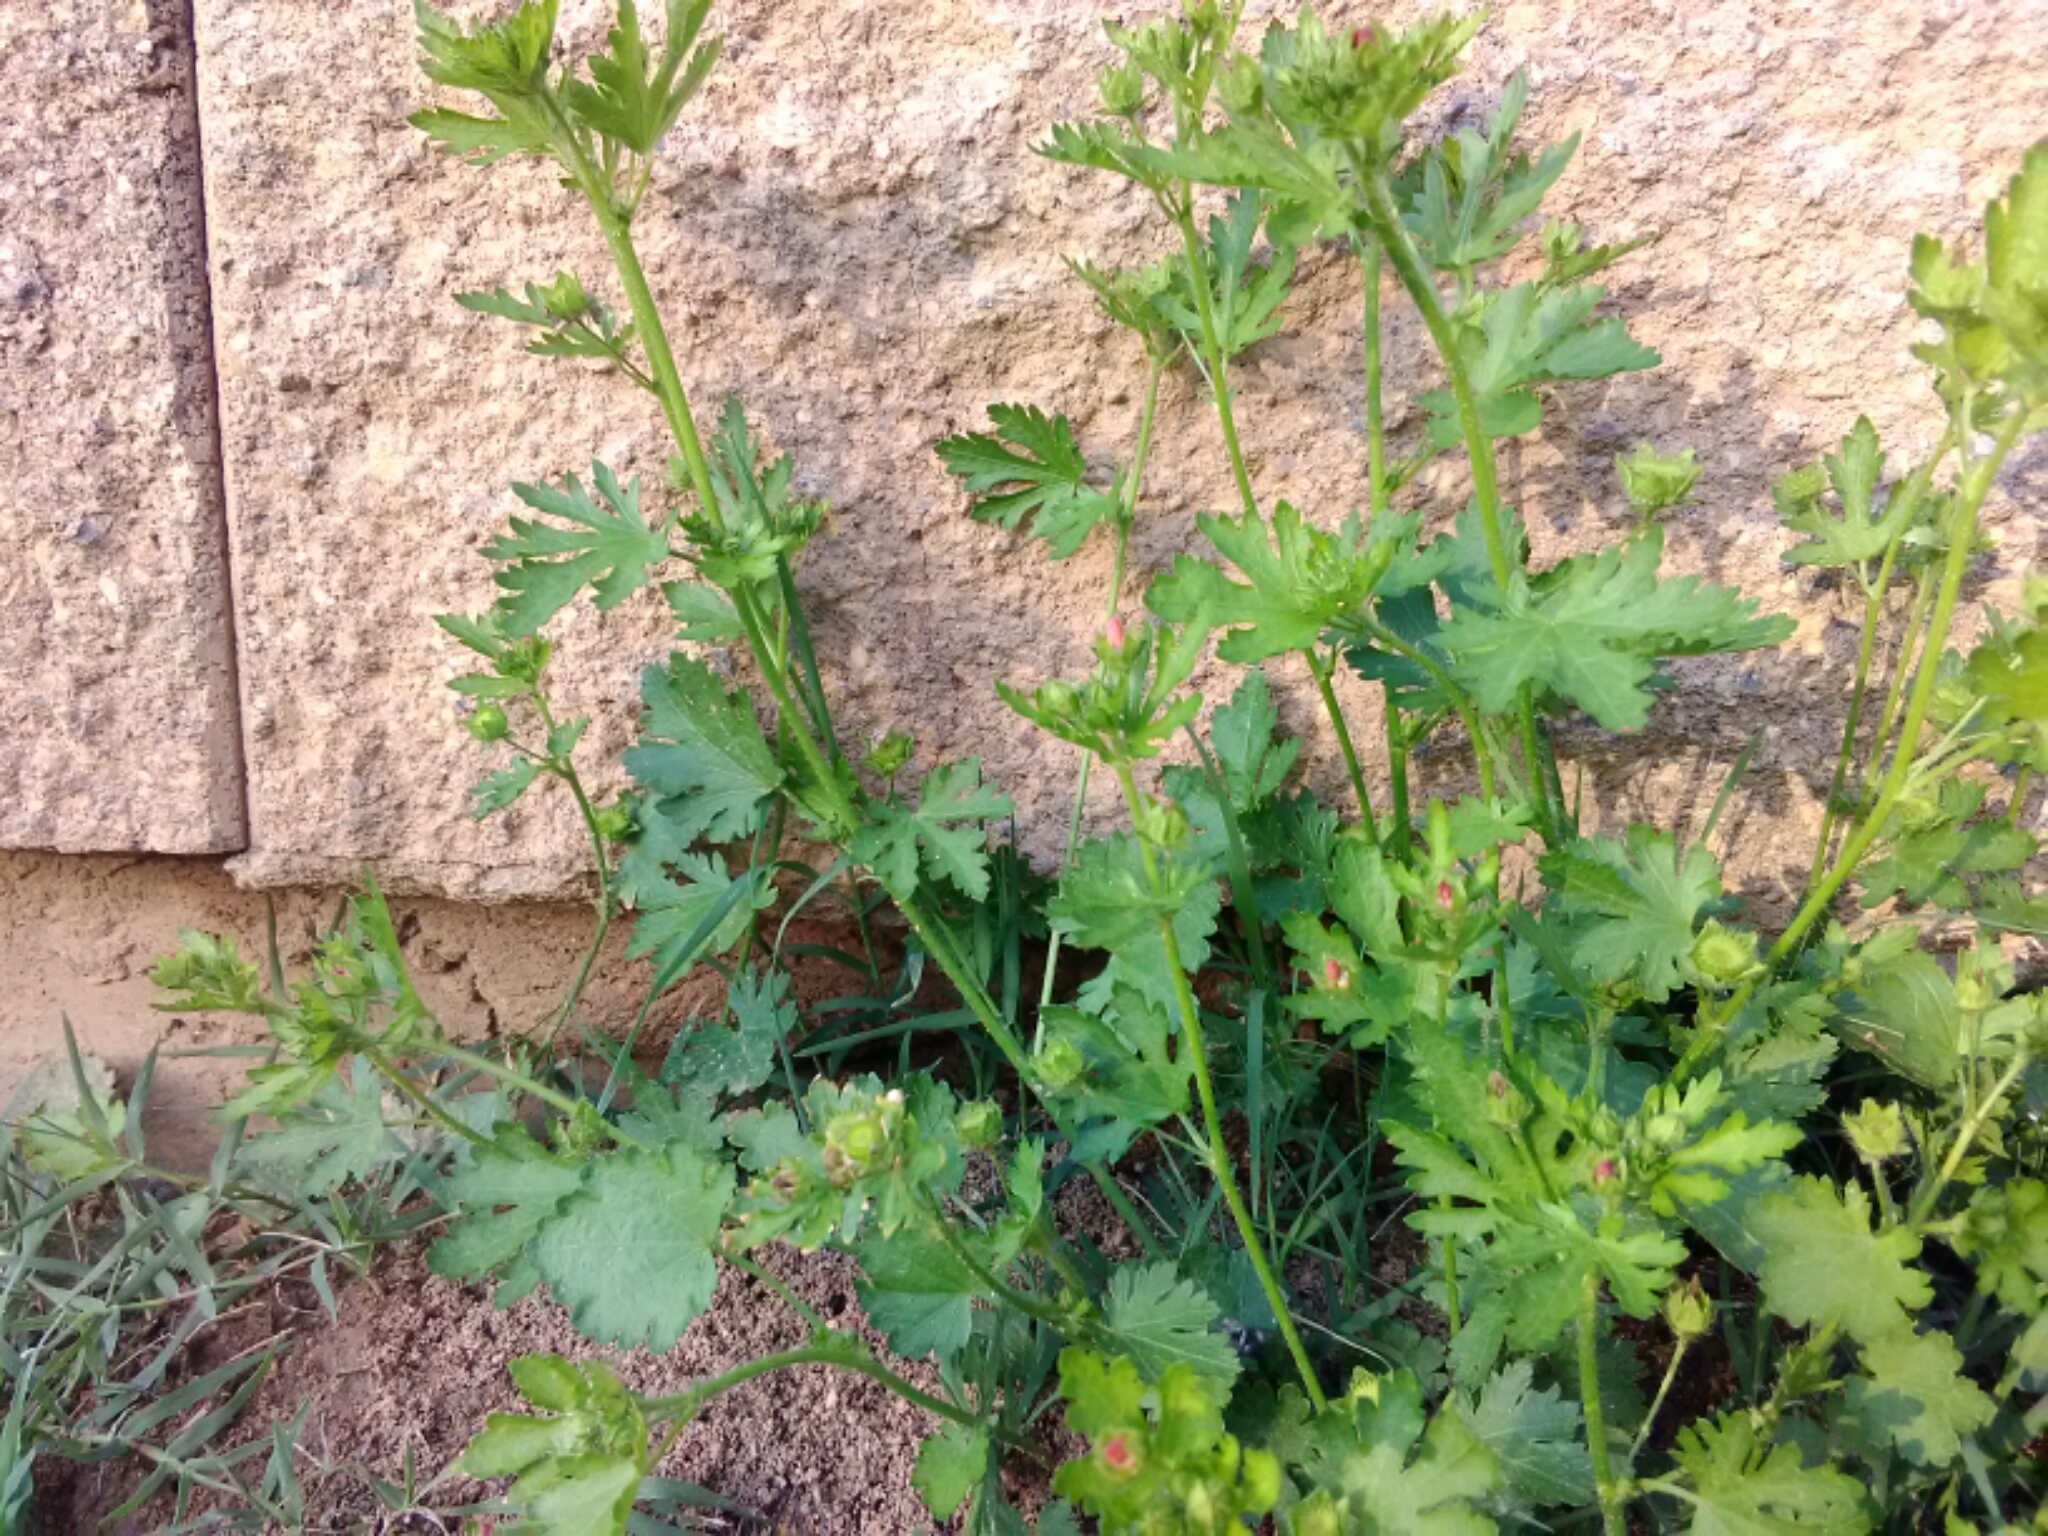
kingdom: Plantae
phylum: Tracheophyta
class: Magnoliopsida
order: Malvales
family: Malvaceae
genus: Modiola
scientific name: Modiola caroliniana
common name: Carolina bristlemallow
